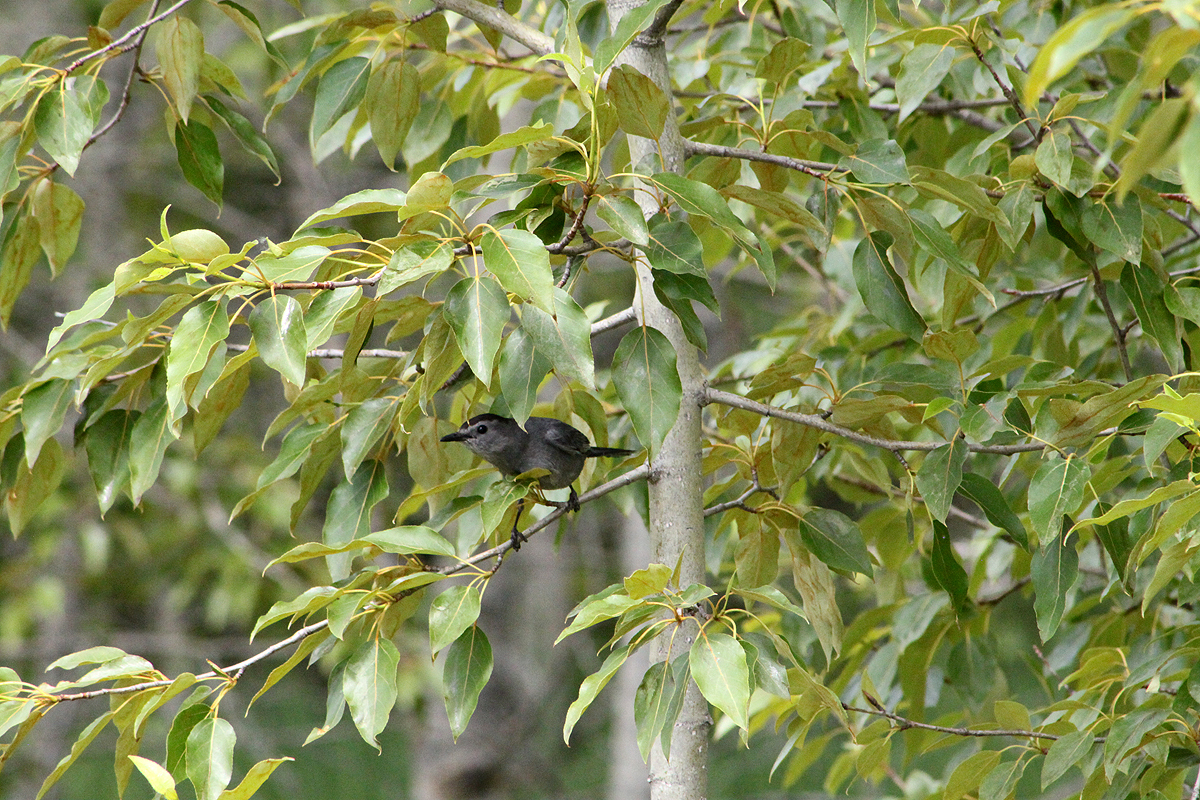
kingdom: Animalia
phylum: Chordata
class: Aves
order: Passeriformes
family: Mimidae
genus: Dumetella
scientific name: Dumetella carolinensis
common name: Gray catbird
